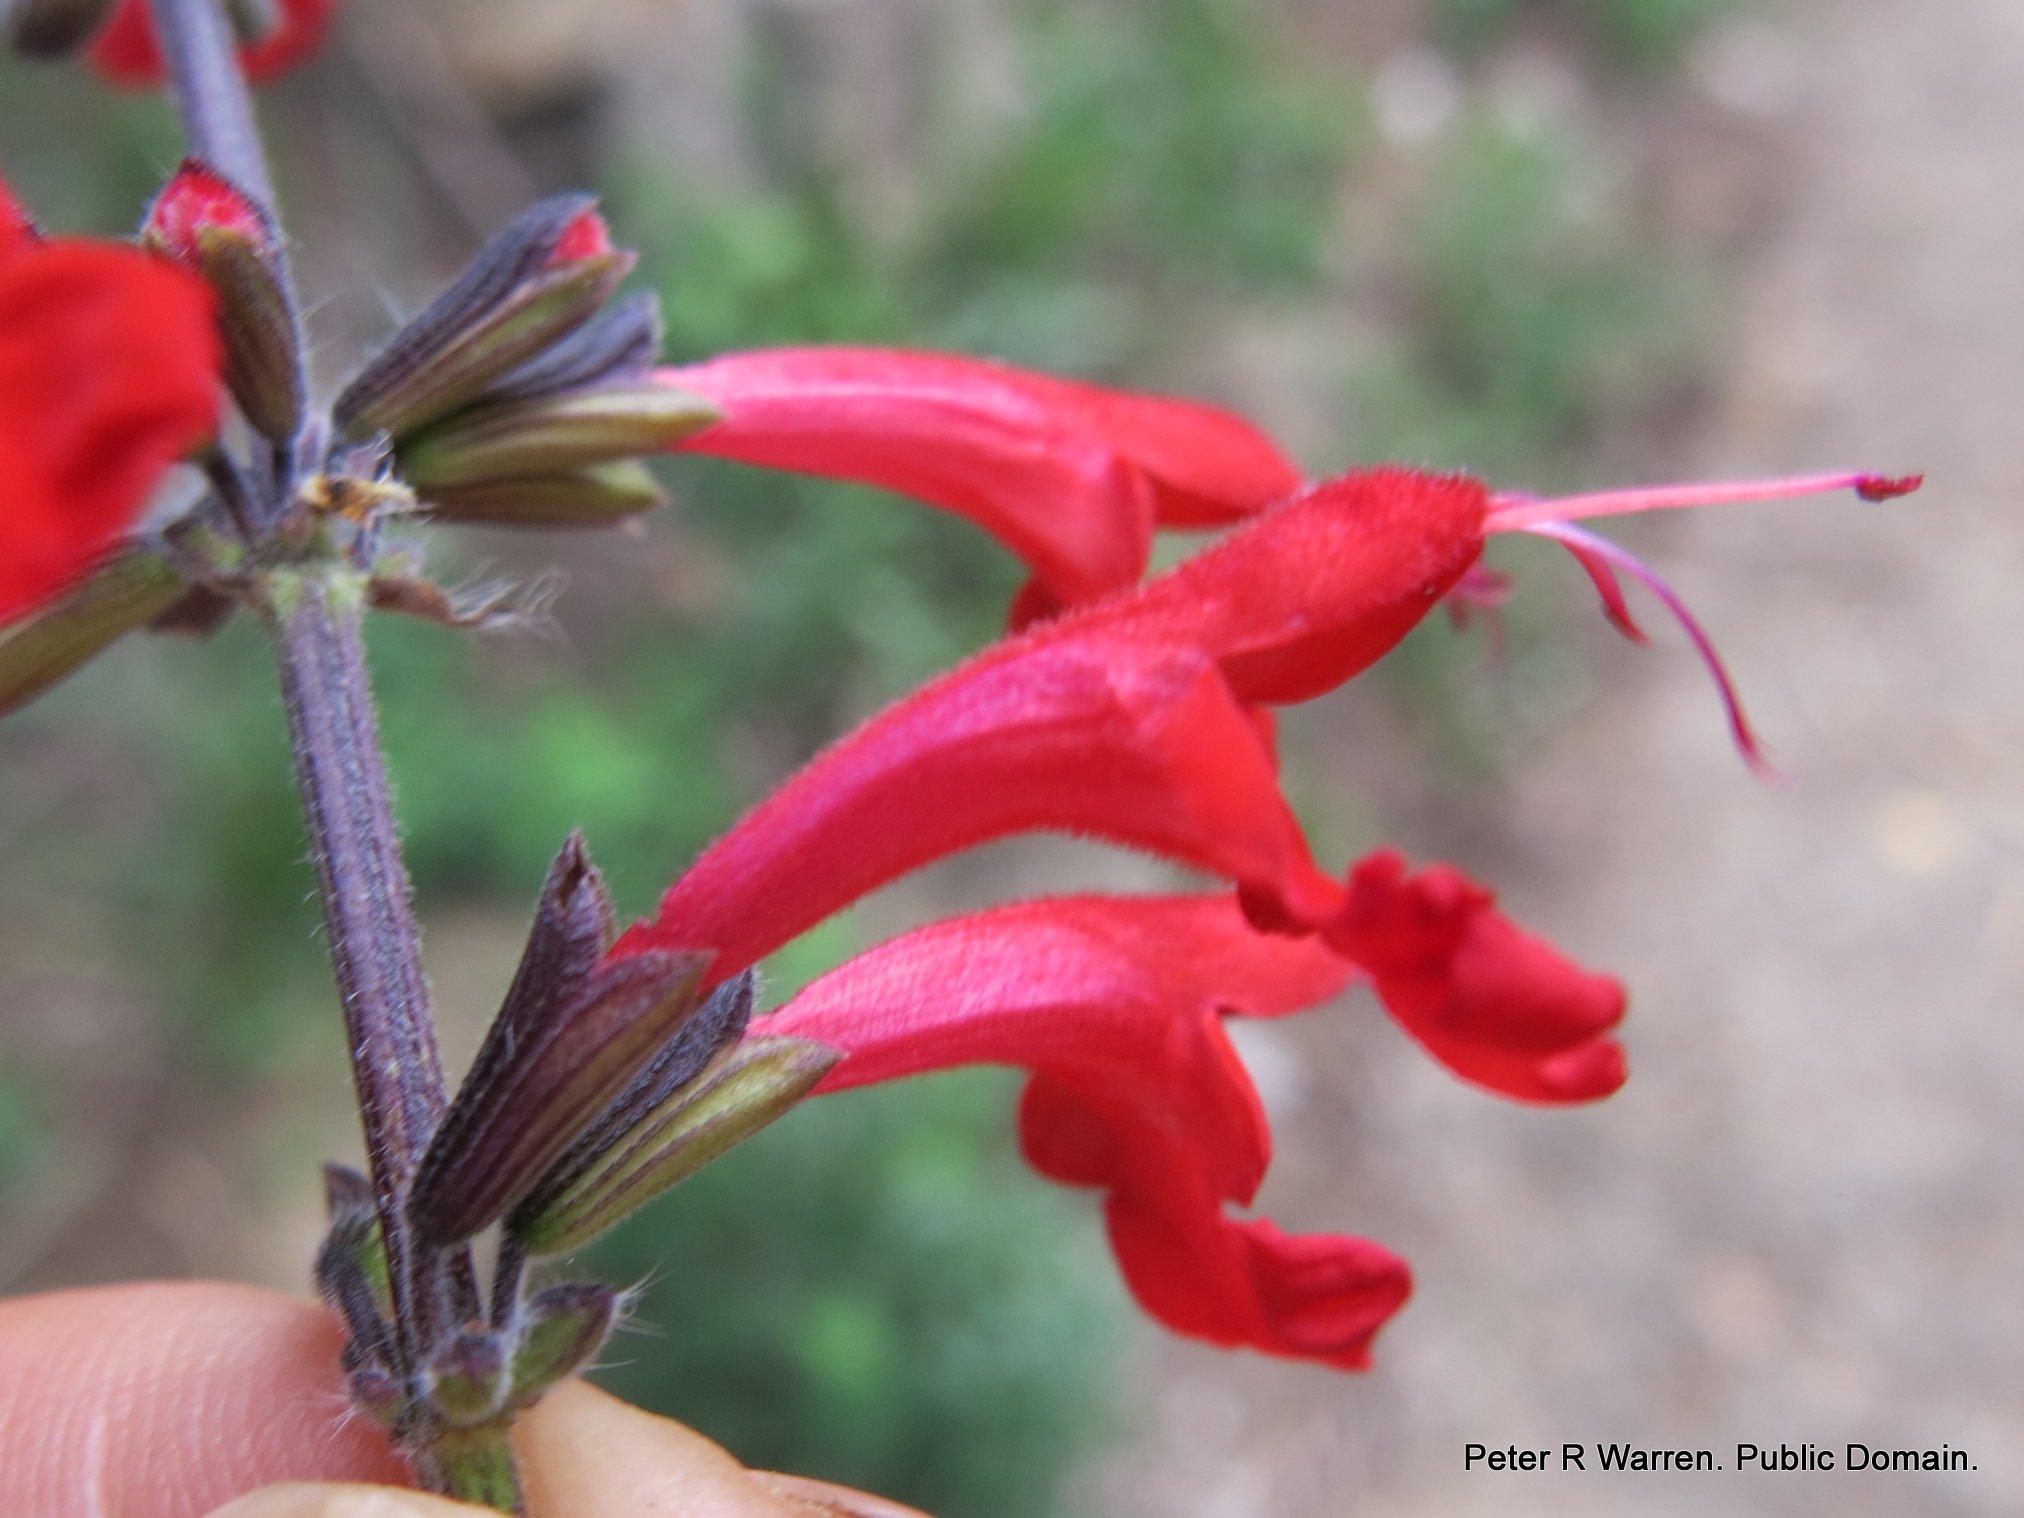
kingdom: Plantae
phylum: Tracheophyta
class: Magnoliopsida
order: Lamiales
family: Lamiaceae
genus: Salvia
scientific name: Salvia coccinea
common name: Blood sage
